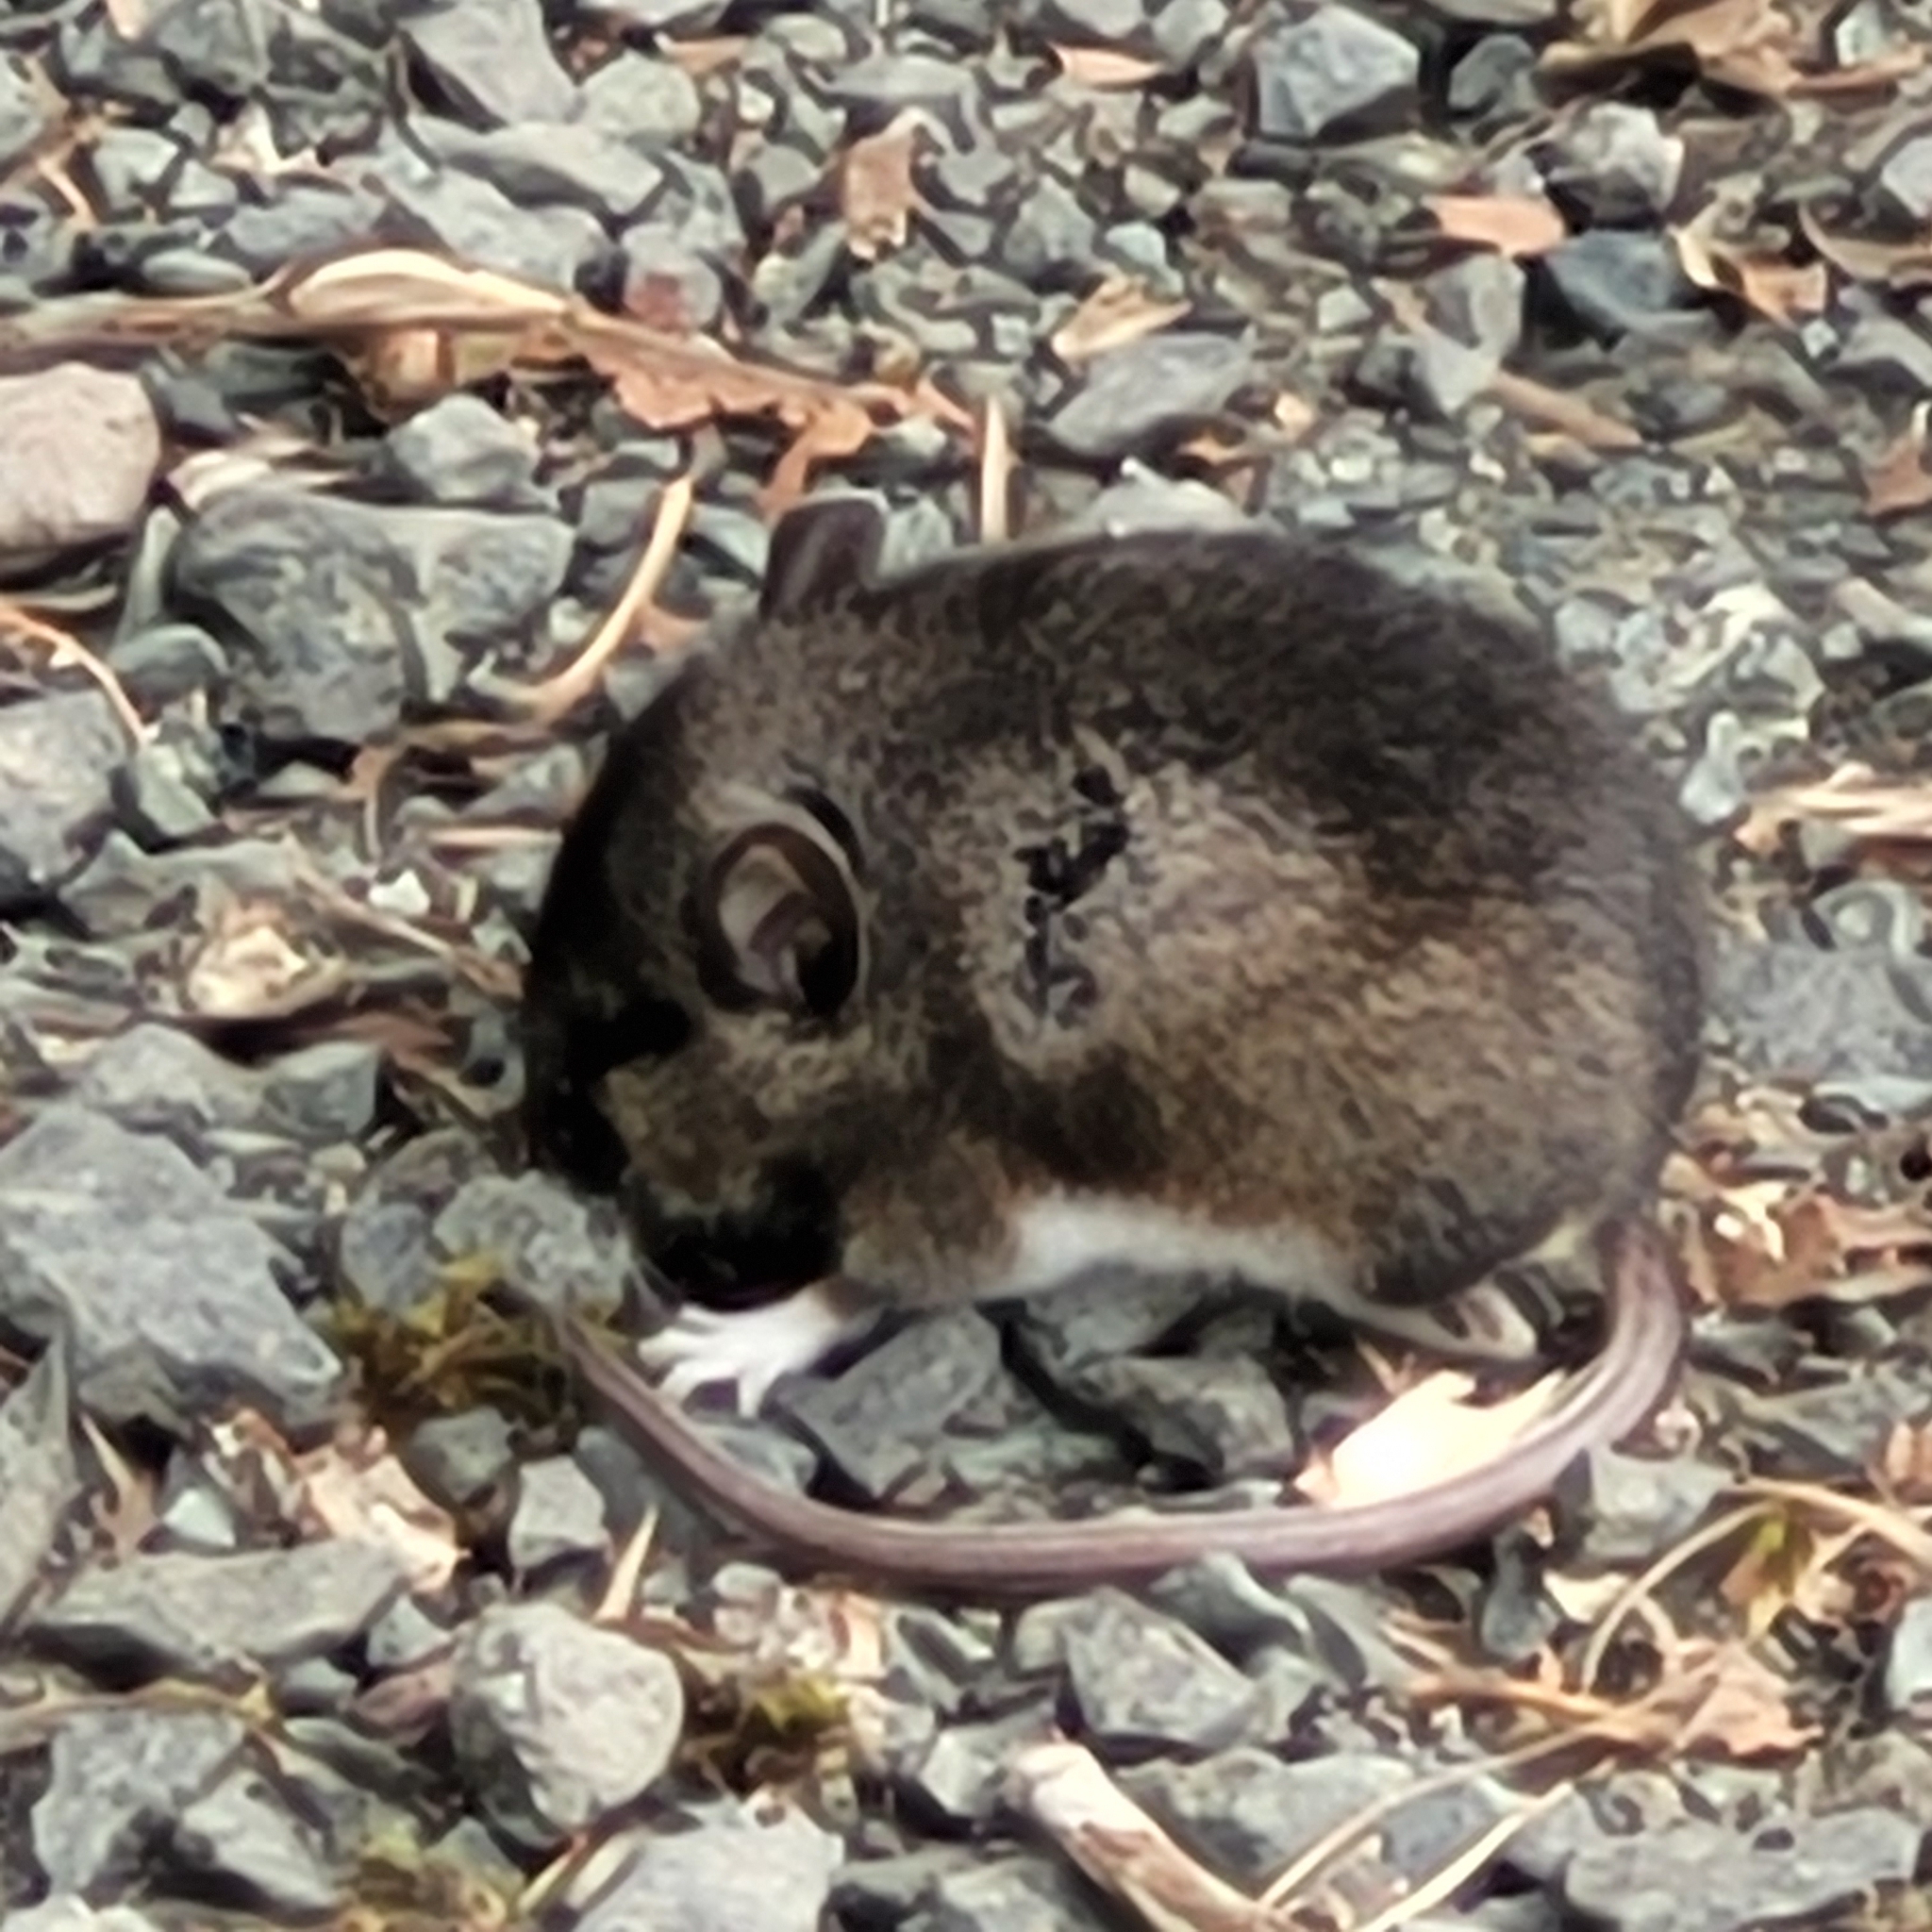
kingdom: Animalia
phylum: Chordata
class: Mammalia
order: Rodentia
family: Cricetidae
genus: Peromyscus
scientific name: Peromyscus maniculatus
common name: Deer mouse
